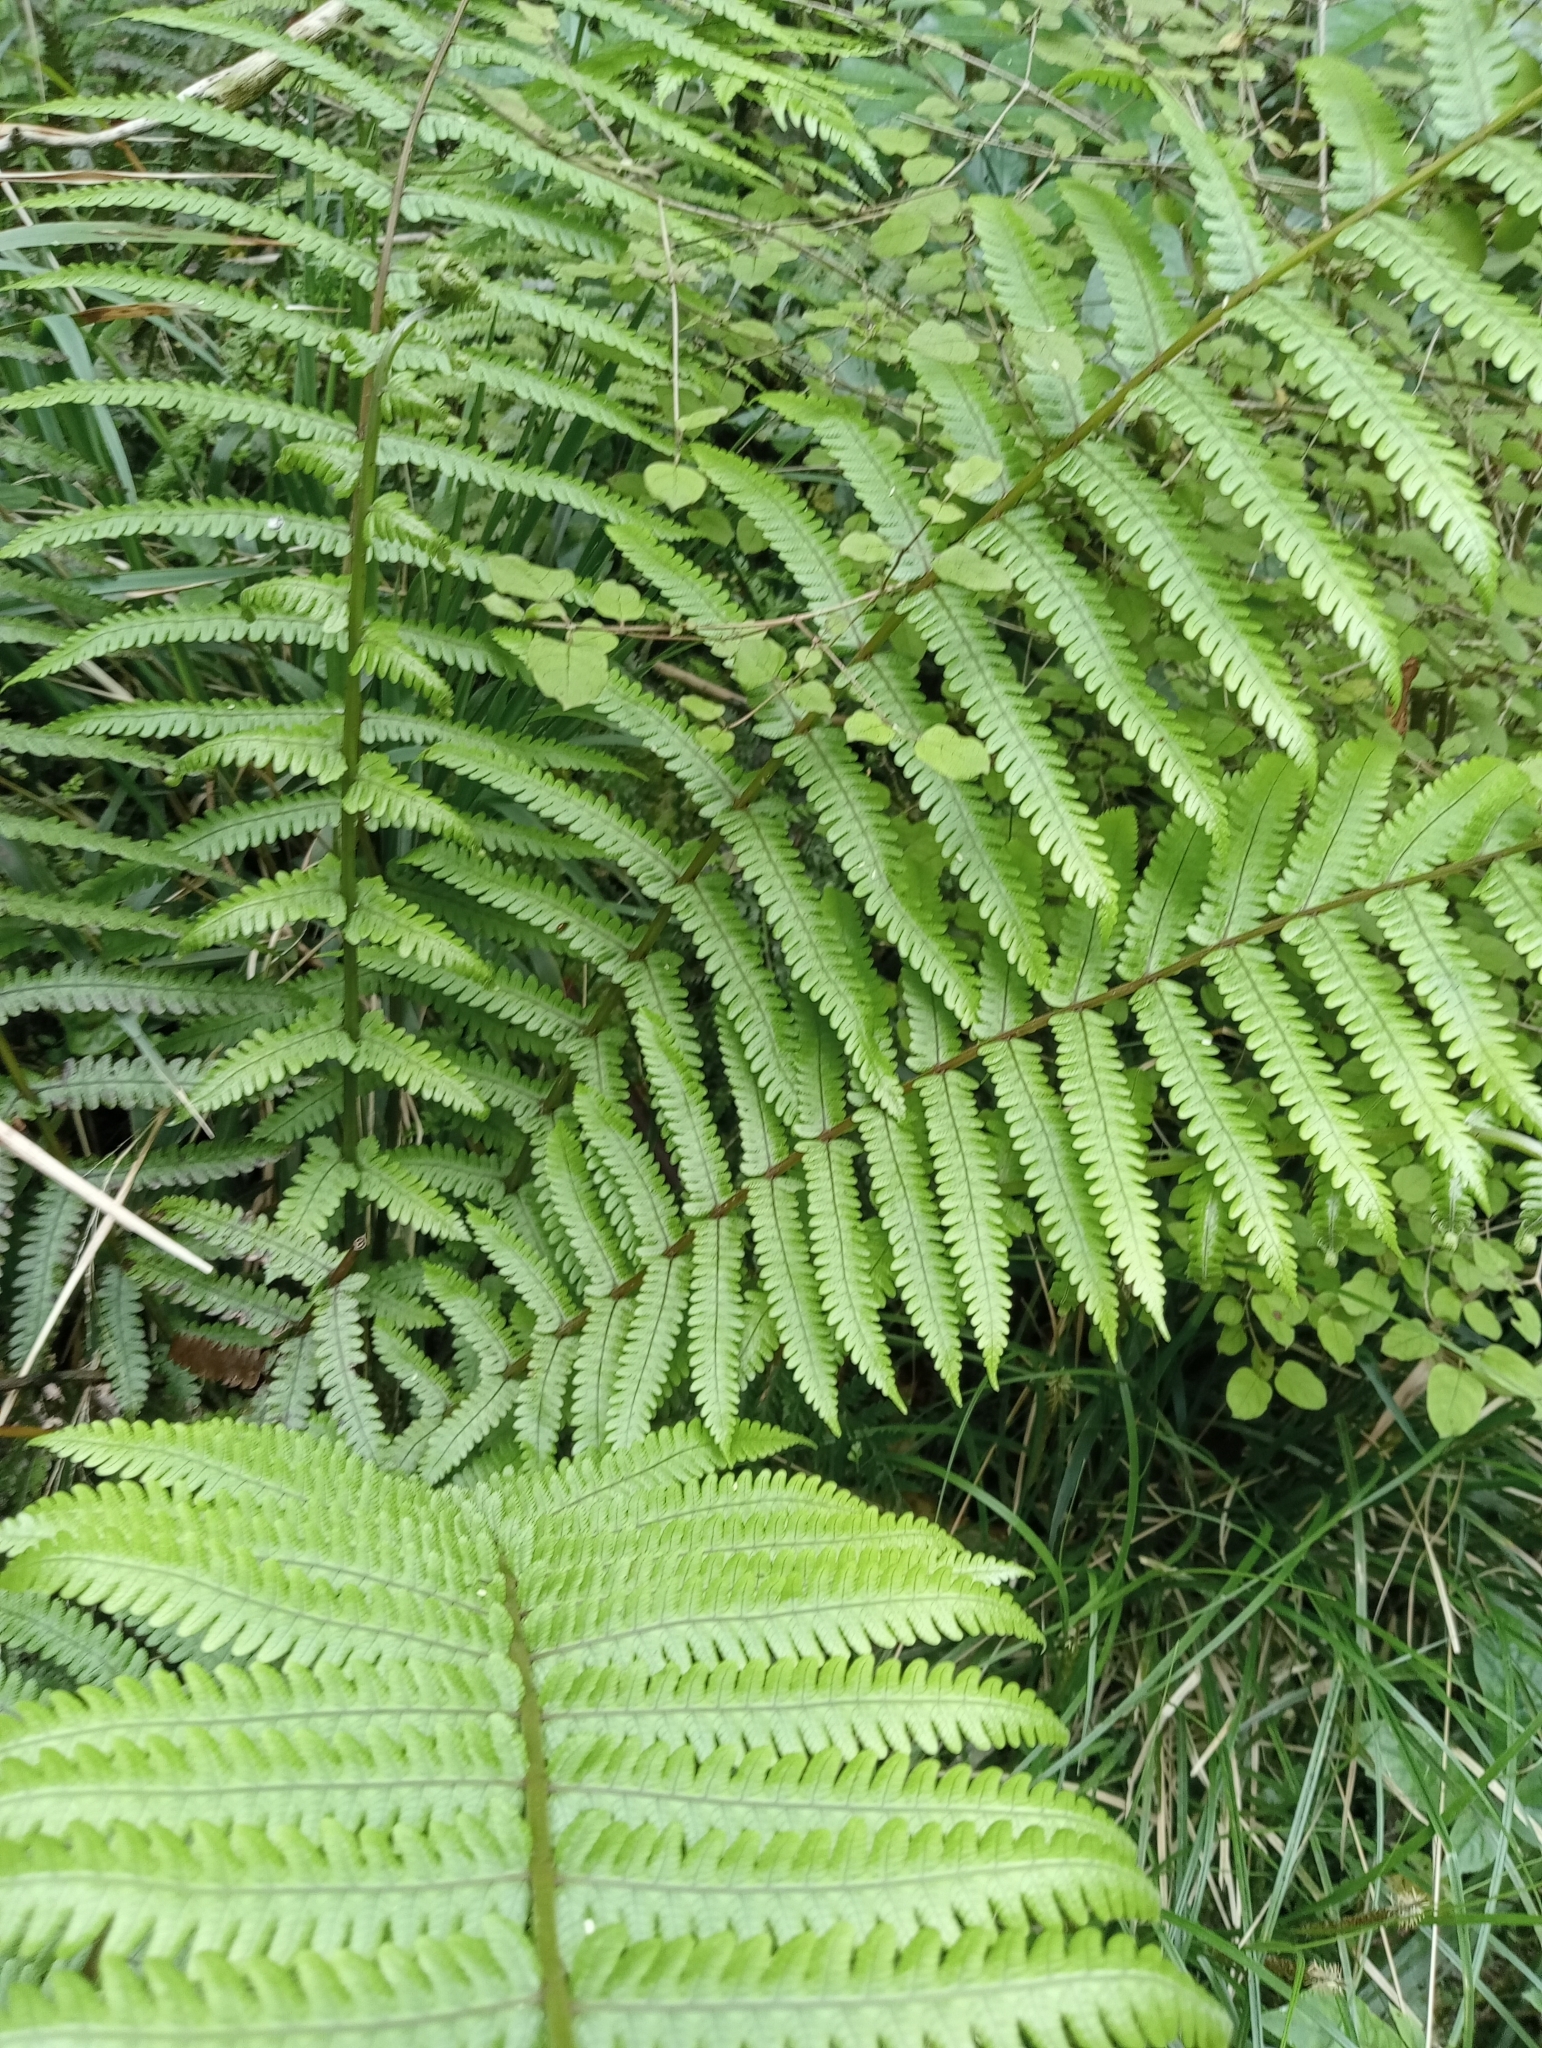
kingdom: Plantae
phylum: Tracheophyta
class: Polypodiopsida
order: Polypodiales
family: Thelypteridaceae
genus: Pakau
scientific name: Pakau pennigera
